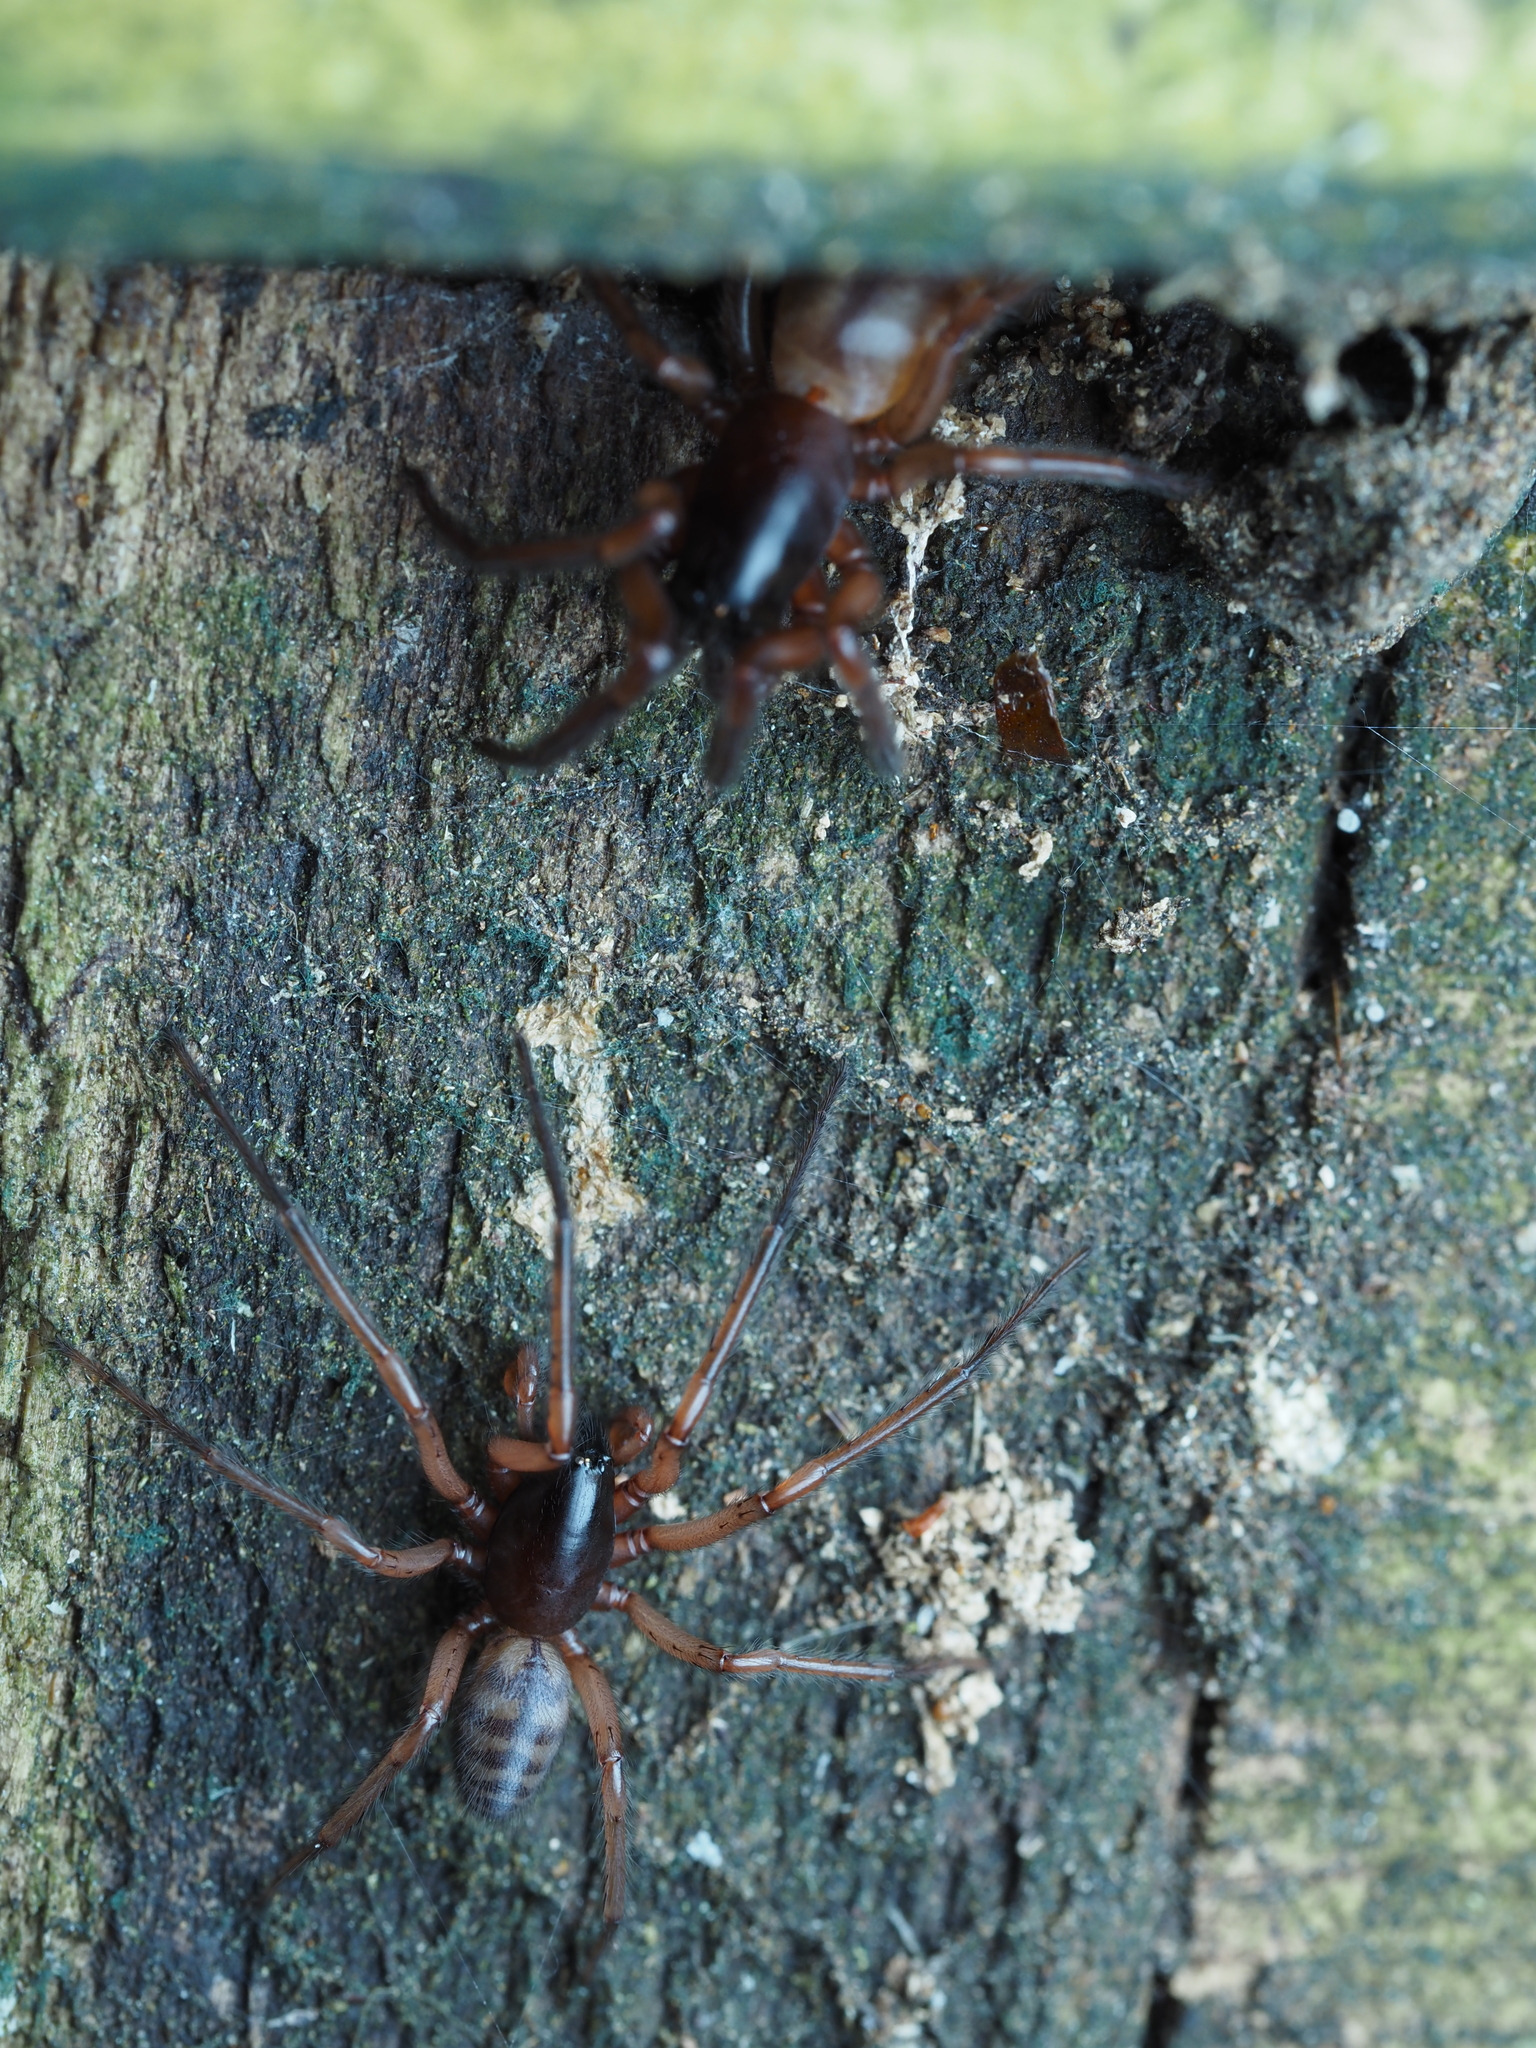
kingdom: Animalia
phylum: Arthropoda
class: Arachnida
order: Araneae
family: Segestriidae
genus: Ariadna
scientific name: Ariadna septemcincta
